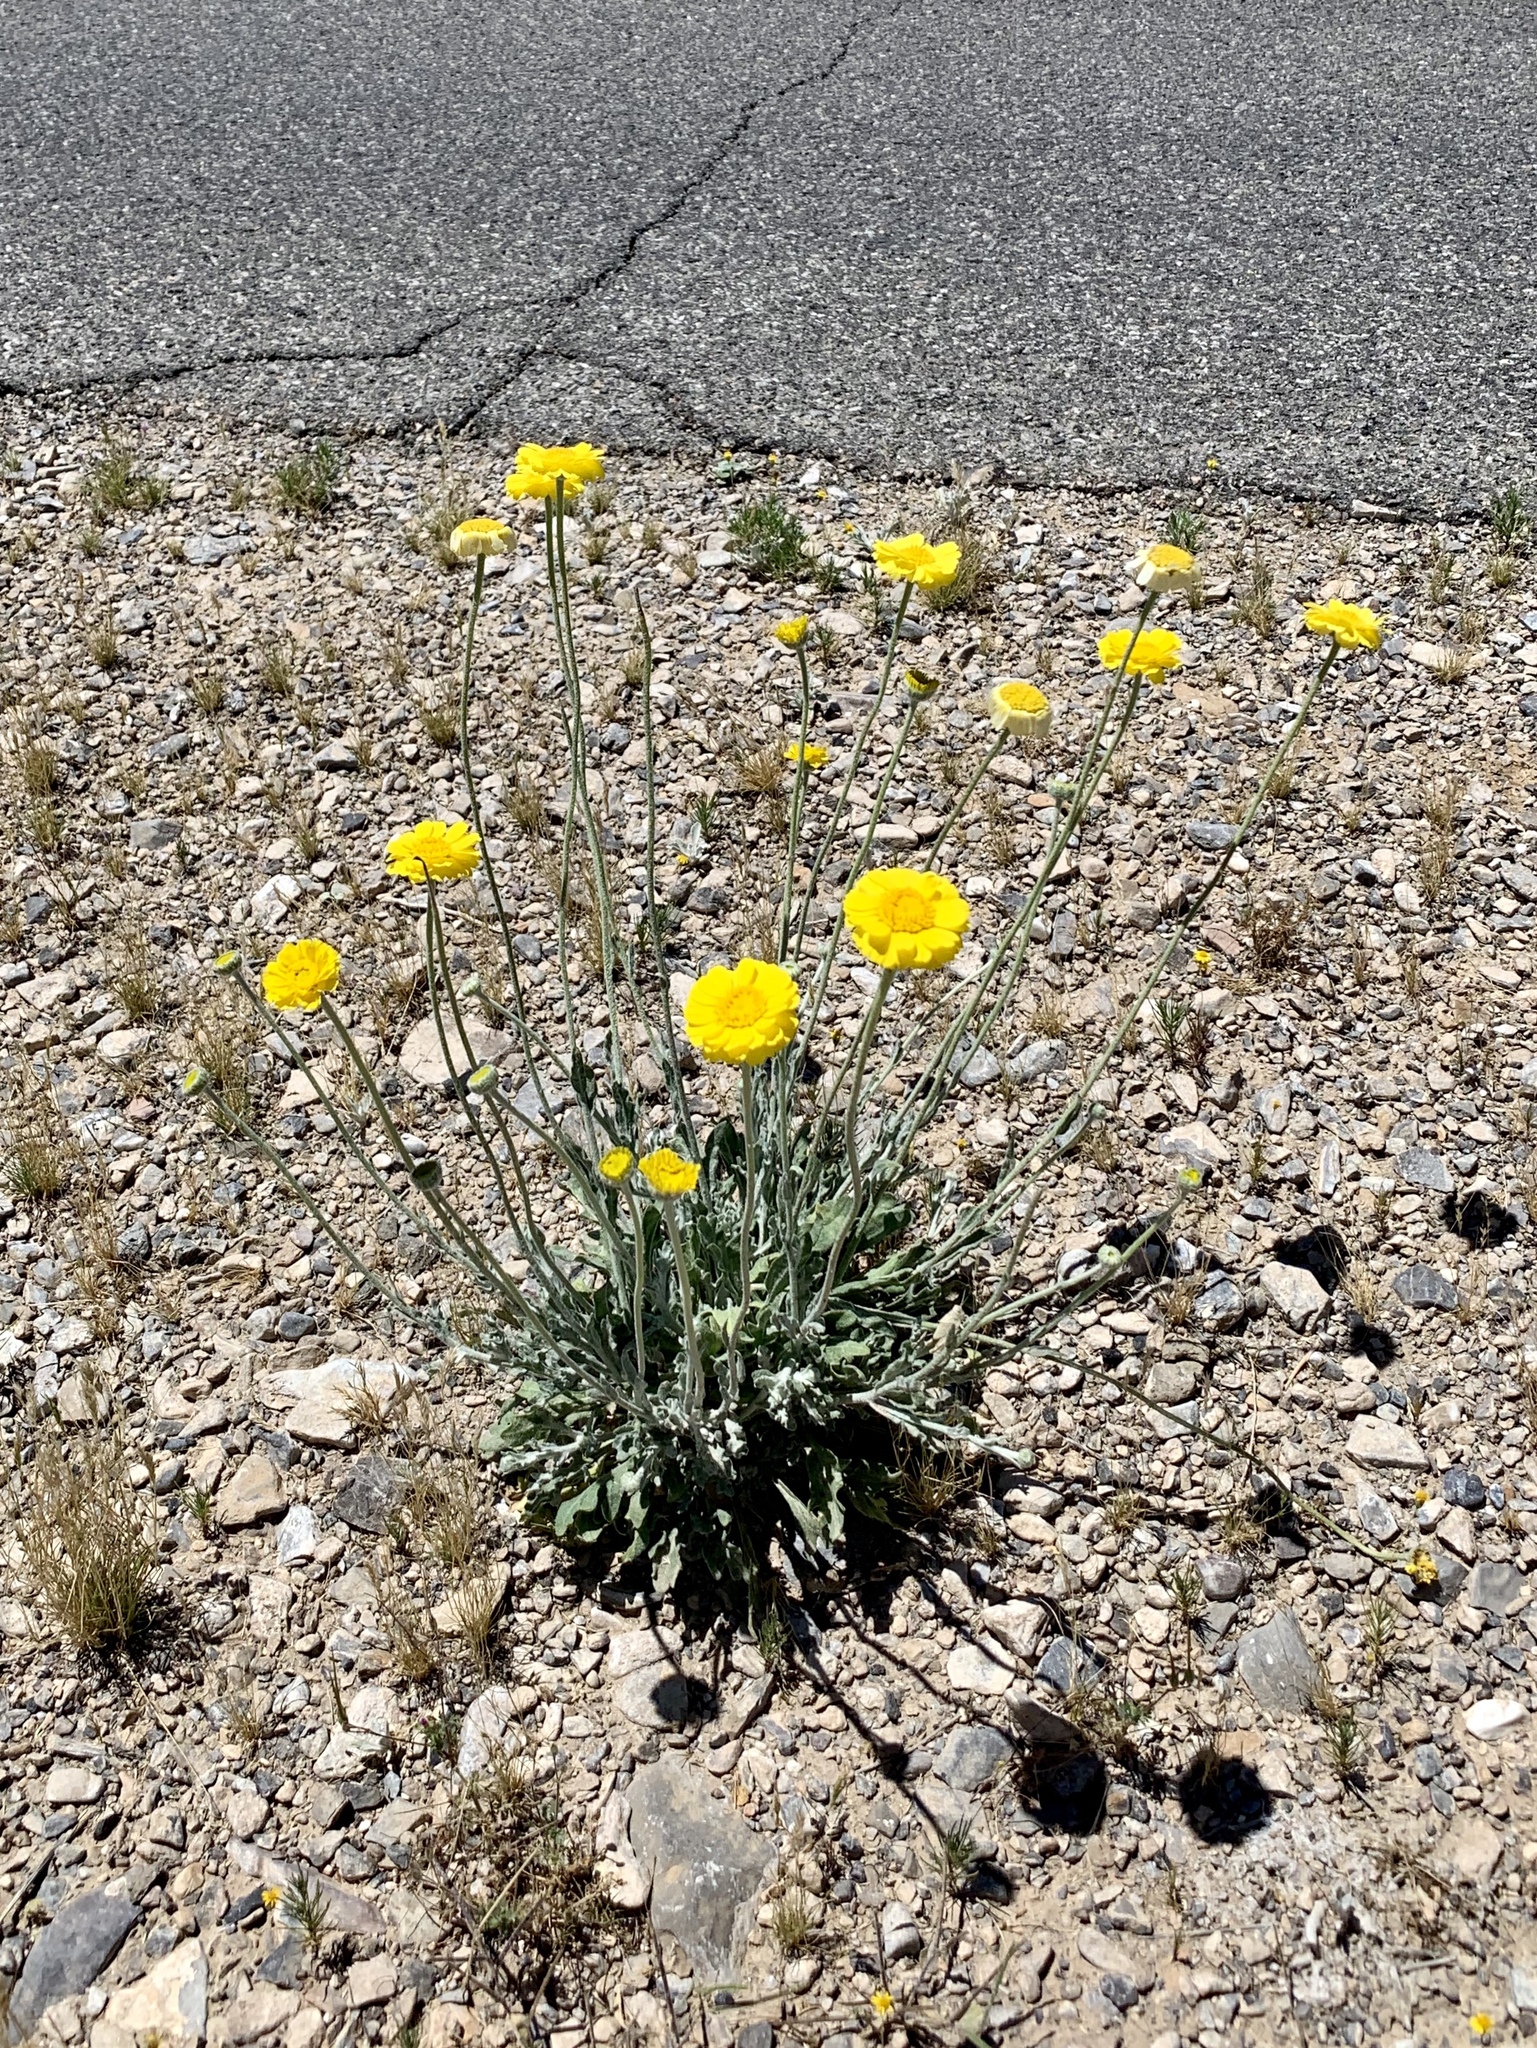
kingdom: Plantae
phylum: Tracheophyta
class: Magnoliopsida
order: Asterales
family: Asteraceae
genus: Baileya
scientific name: Baileya multiradiata
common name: Desert-marigold
